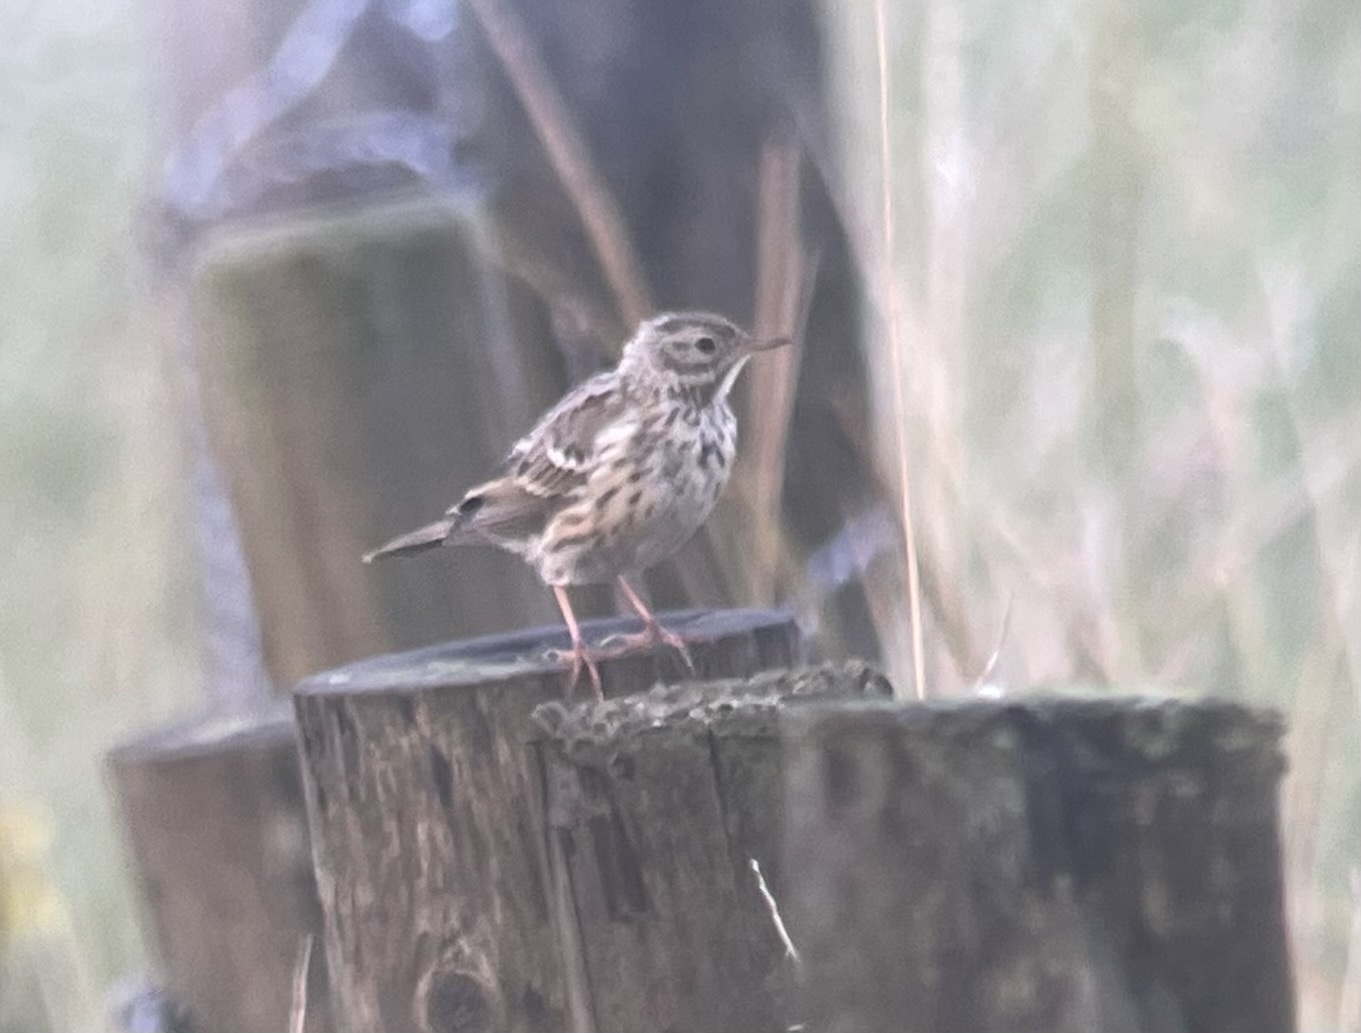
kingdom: Animalia
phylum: Chordata
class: Aves
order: Passeriformes
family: Motacillidae
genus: Anthus
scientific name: Anthus pratensis
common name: Meadow pipit
